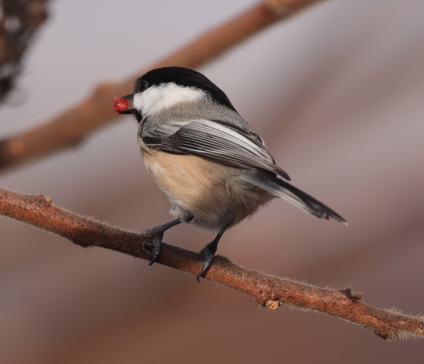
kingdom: Animalia
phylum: Chordata
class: Aves
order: Passeriformes
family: Paridae
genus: Poecile
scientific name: Poecile atricapillus
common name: Black-capped chickadee
